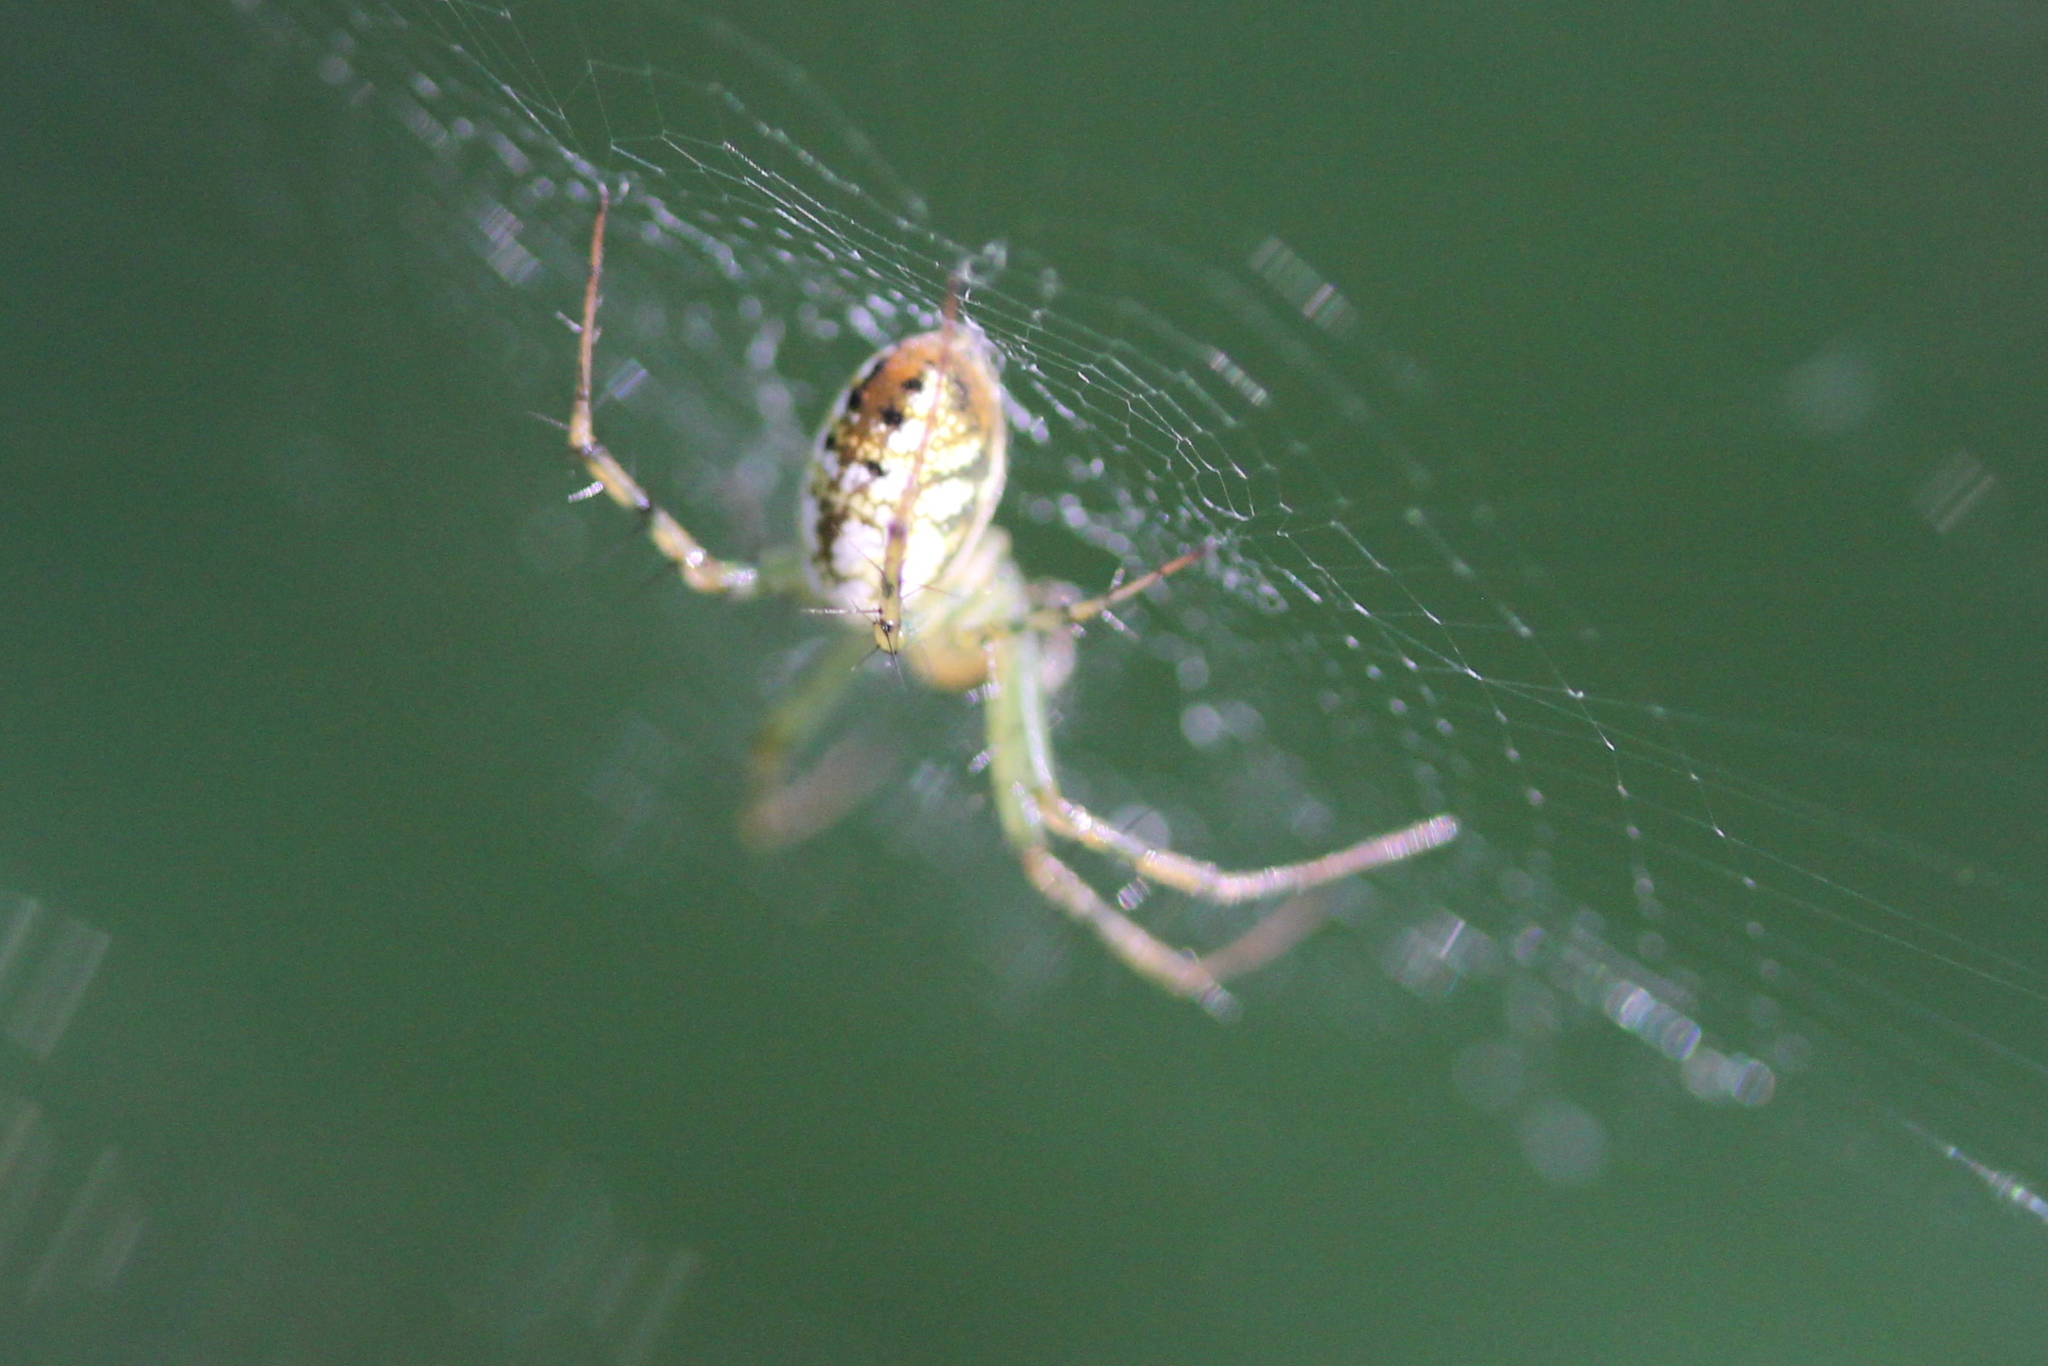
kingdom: Animalia
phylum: Arthropoda
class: Arachnida
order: Araneae
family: Araneidae
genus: Mangora
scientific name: Mangora spiculata
